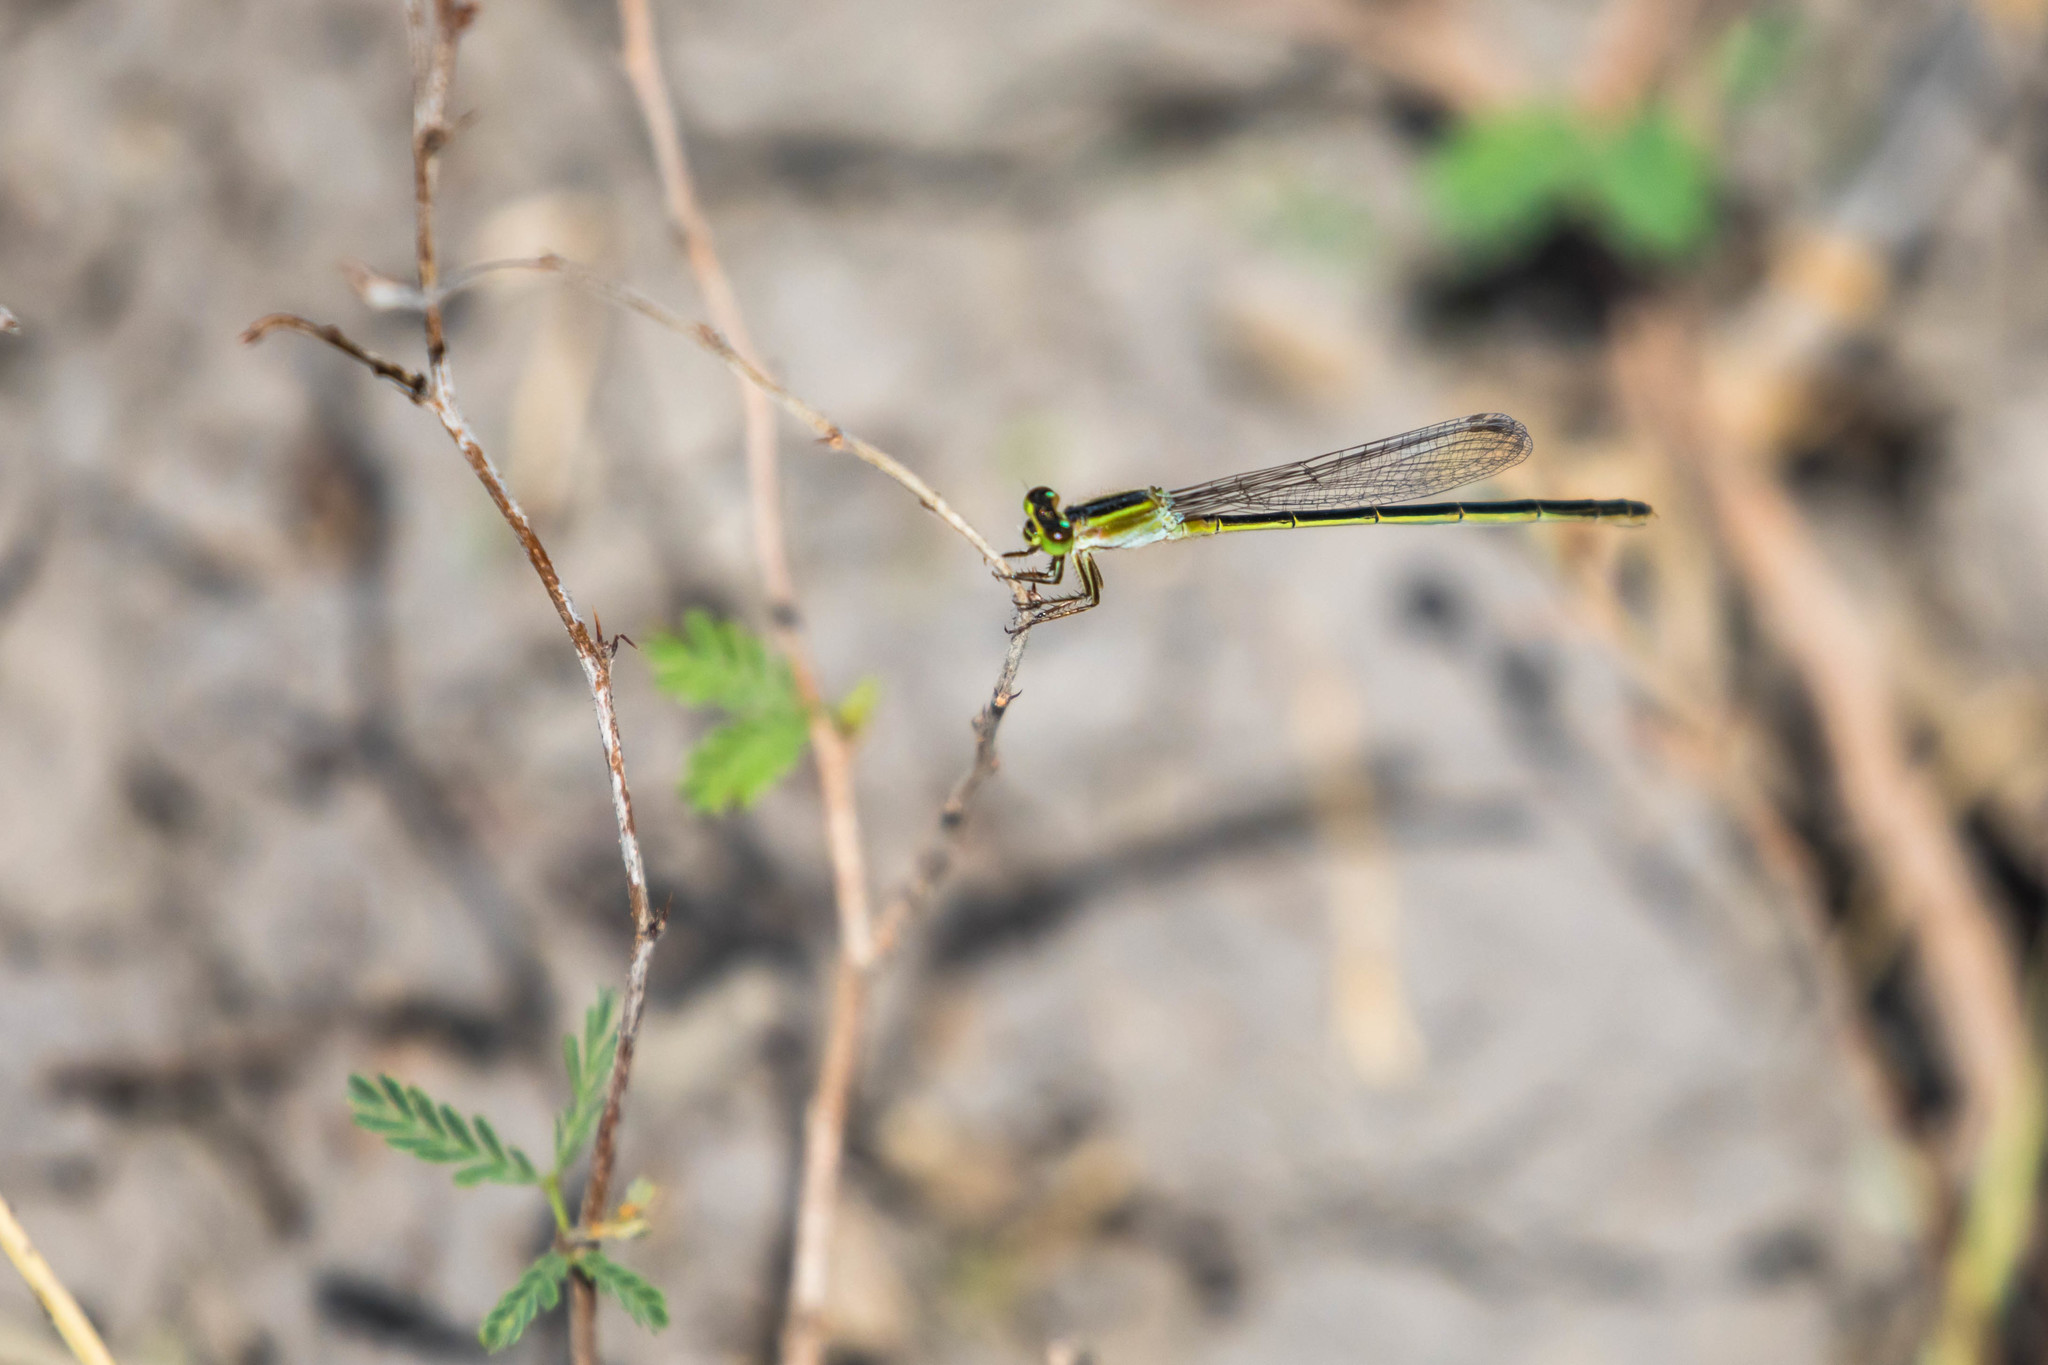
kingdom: Animalia
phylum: Arthropoda
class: Insecta
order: Odonata
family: Coenagrionidae
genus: Ischnura
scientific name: Ischnura ramburii
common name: Rambur's forktail
